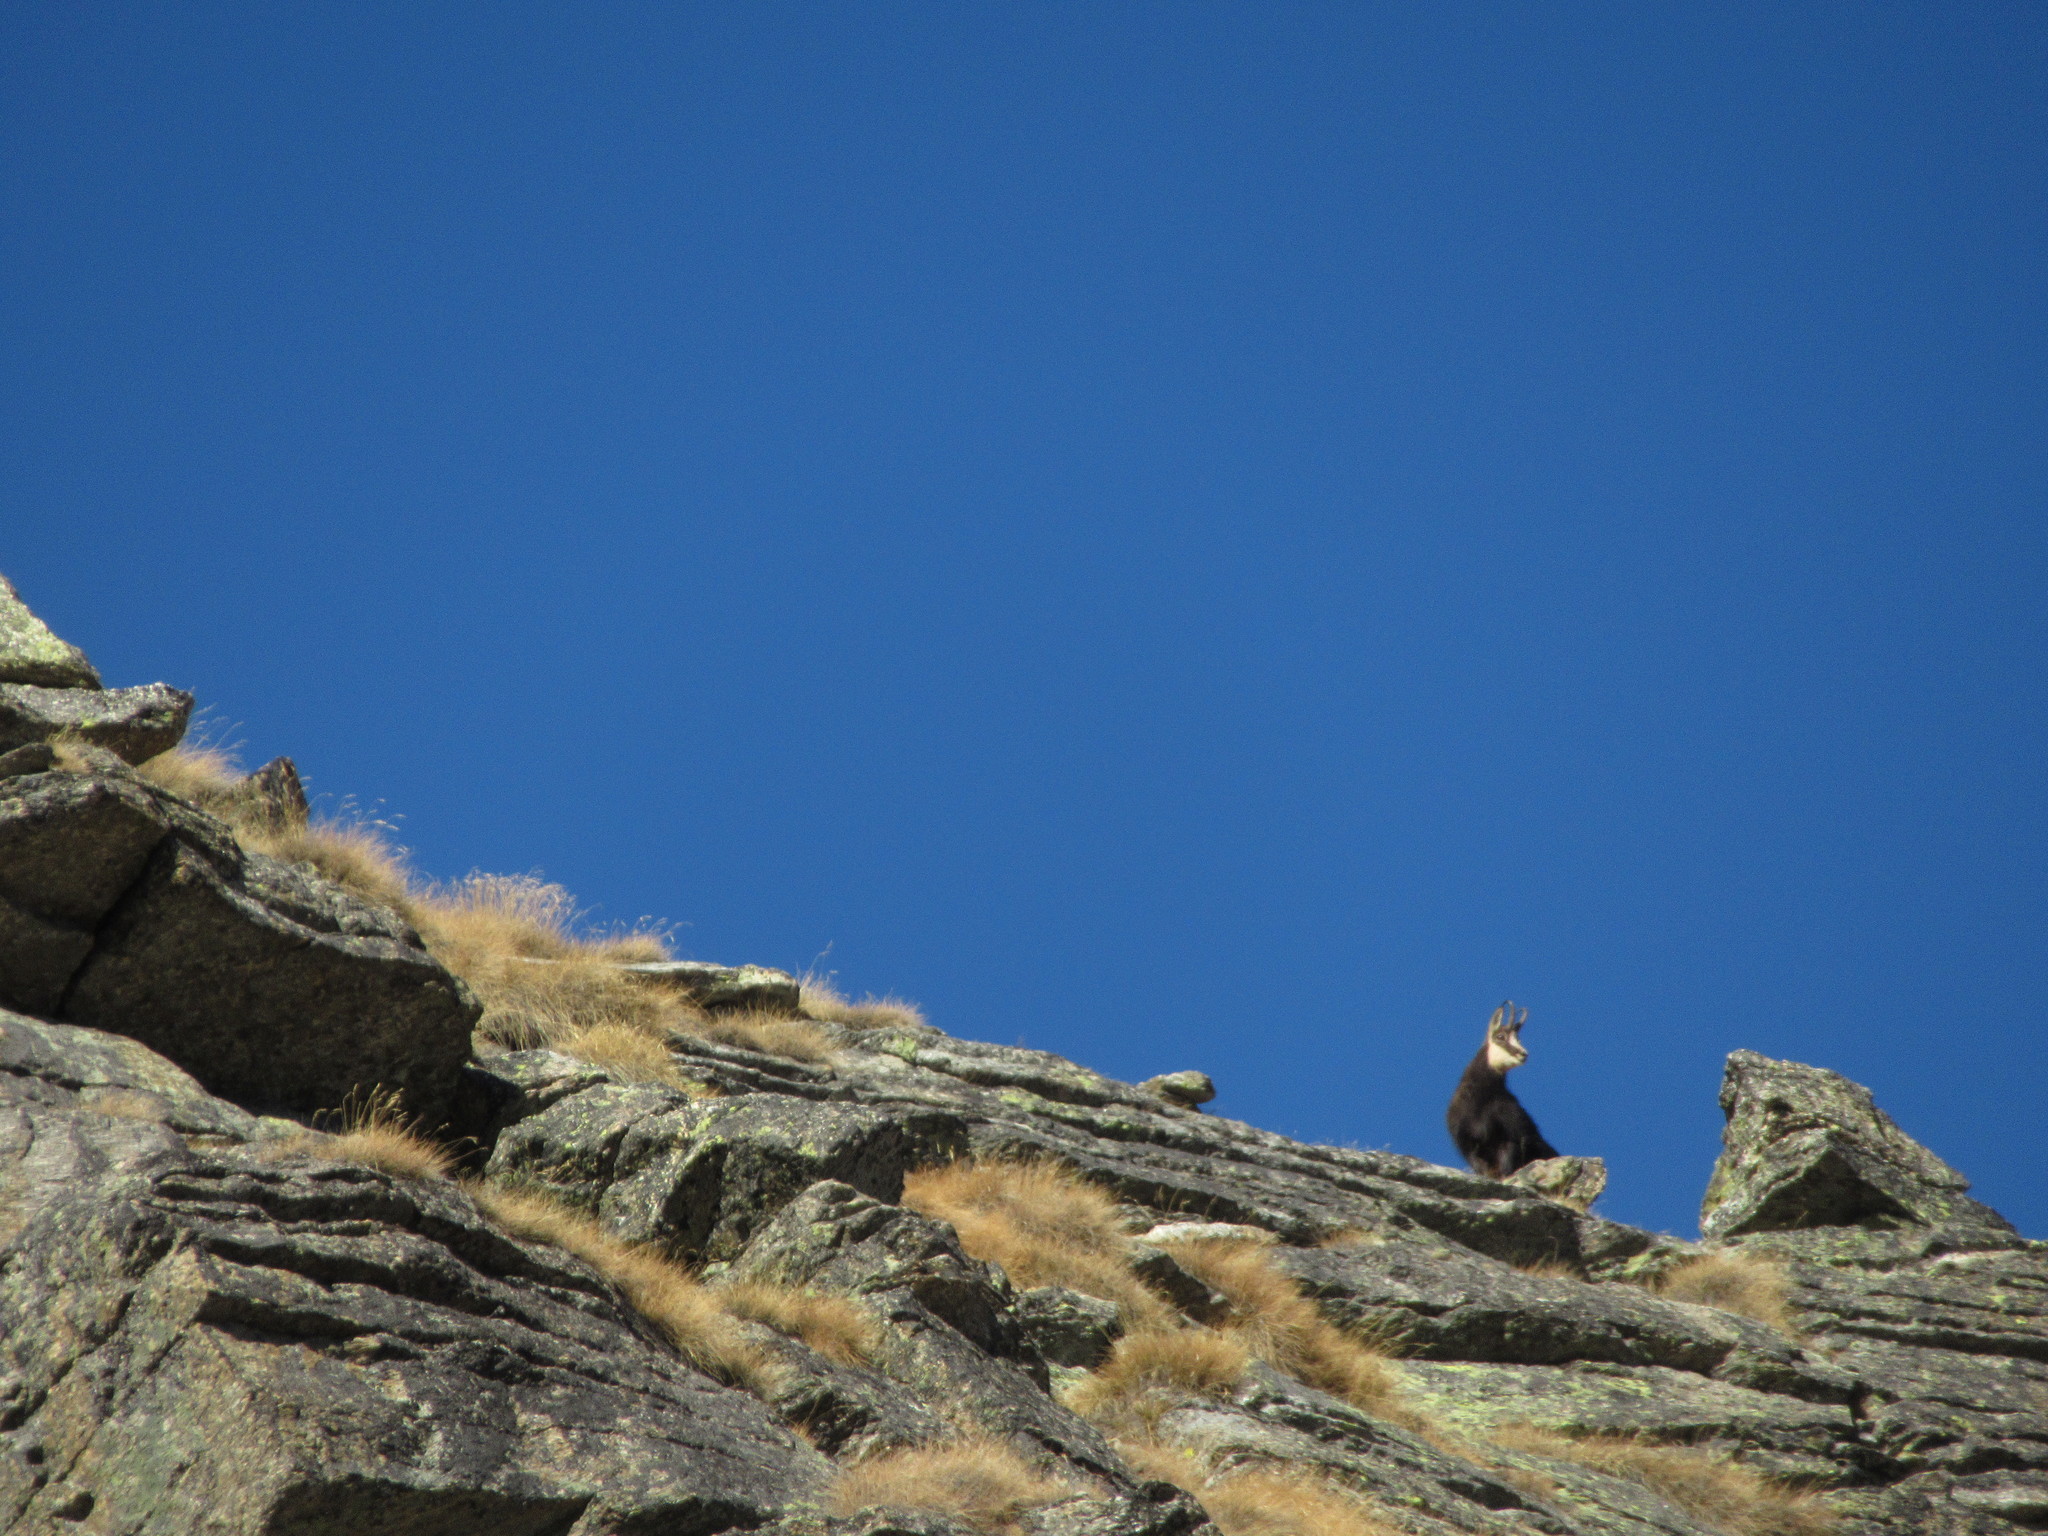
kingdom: Animalia
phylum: Chordata
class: Mammalia
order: Artiodactyla
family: Bovidae
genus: Rupicapra
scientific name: Rupicapra rupicapra
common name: Chamois
